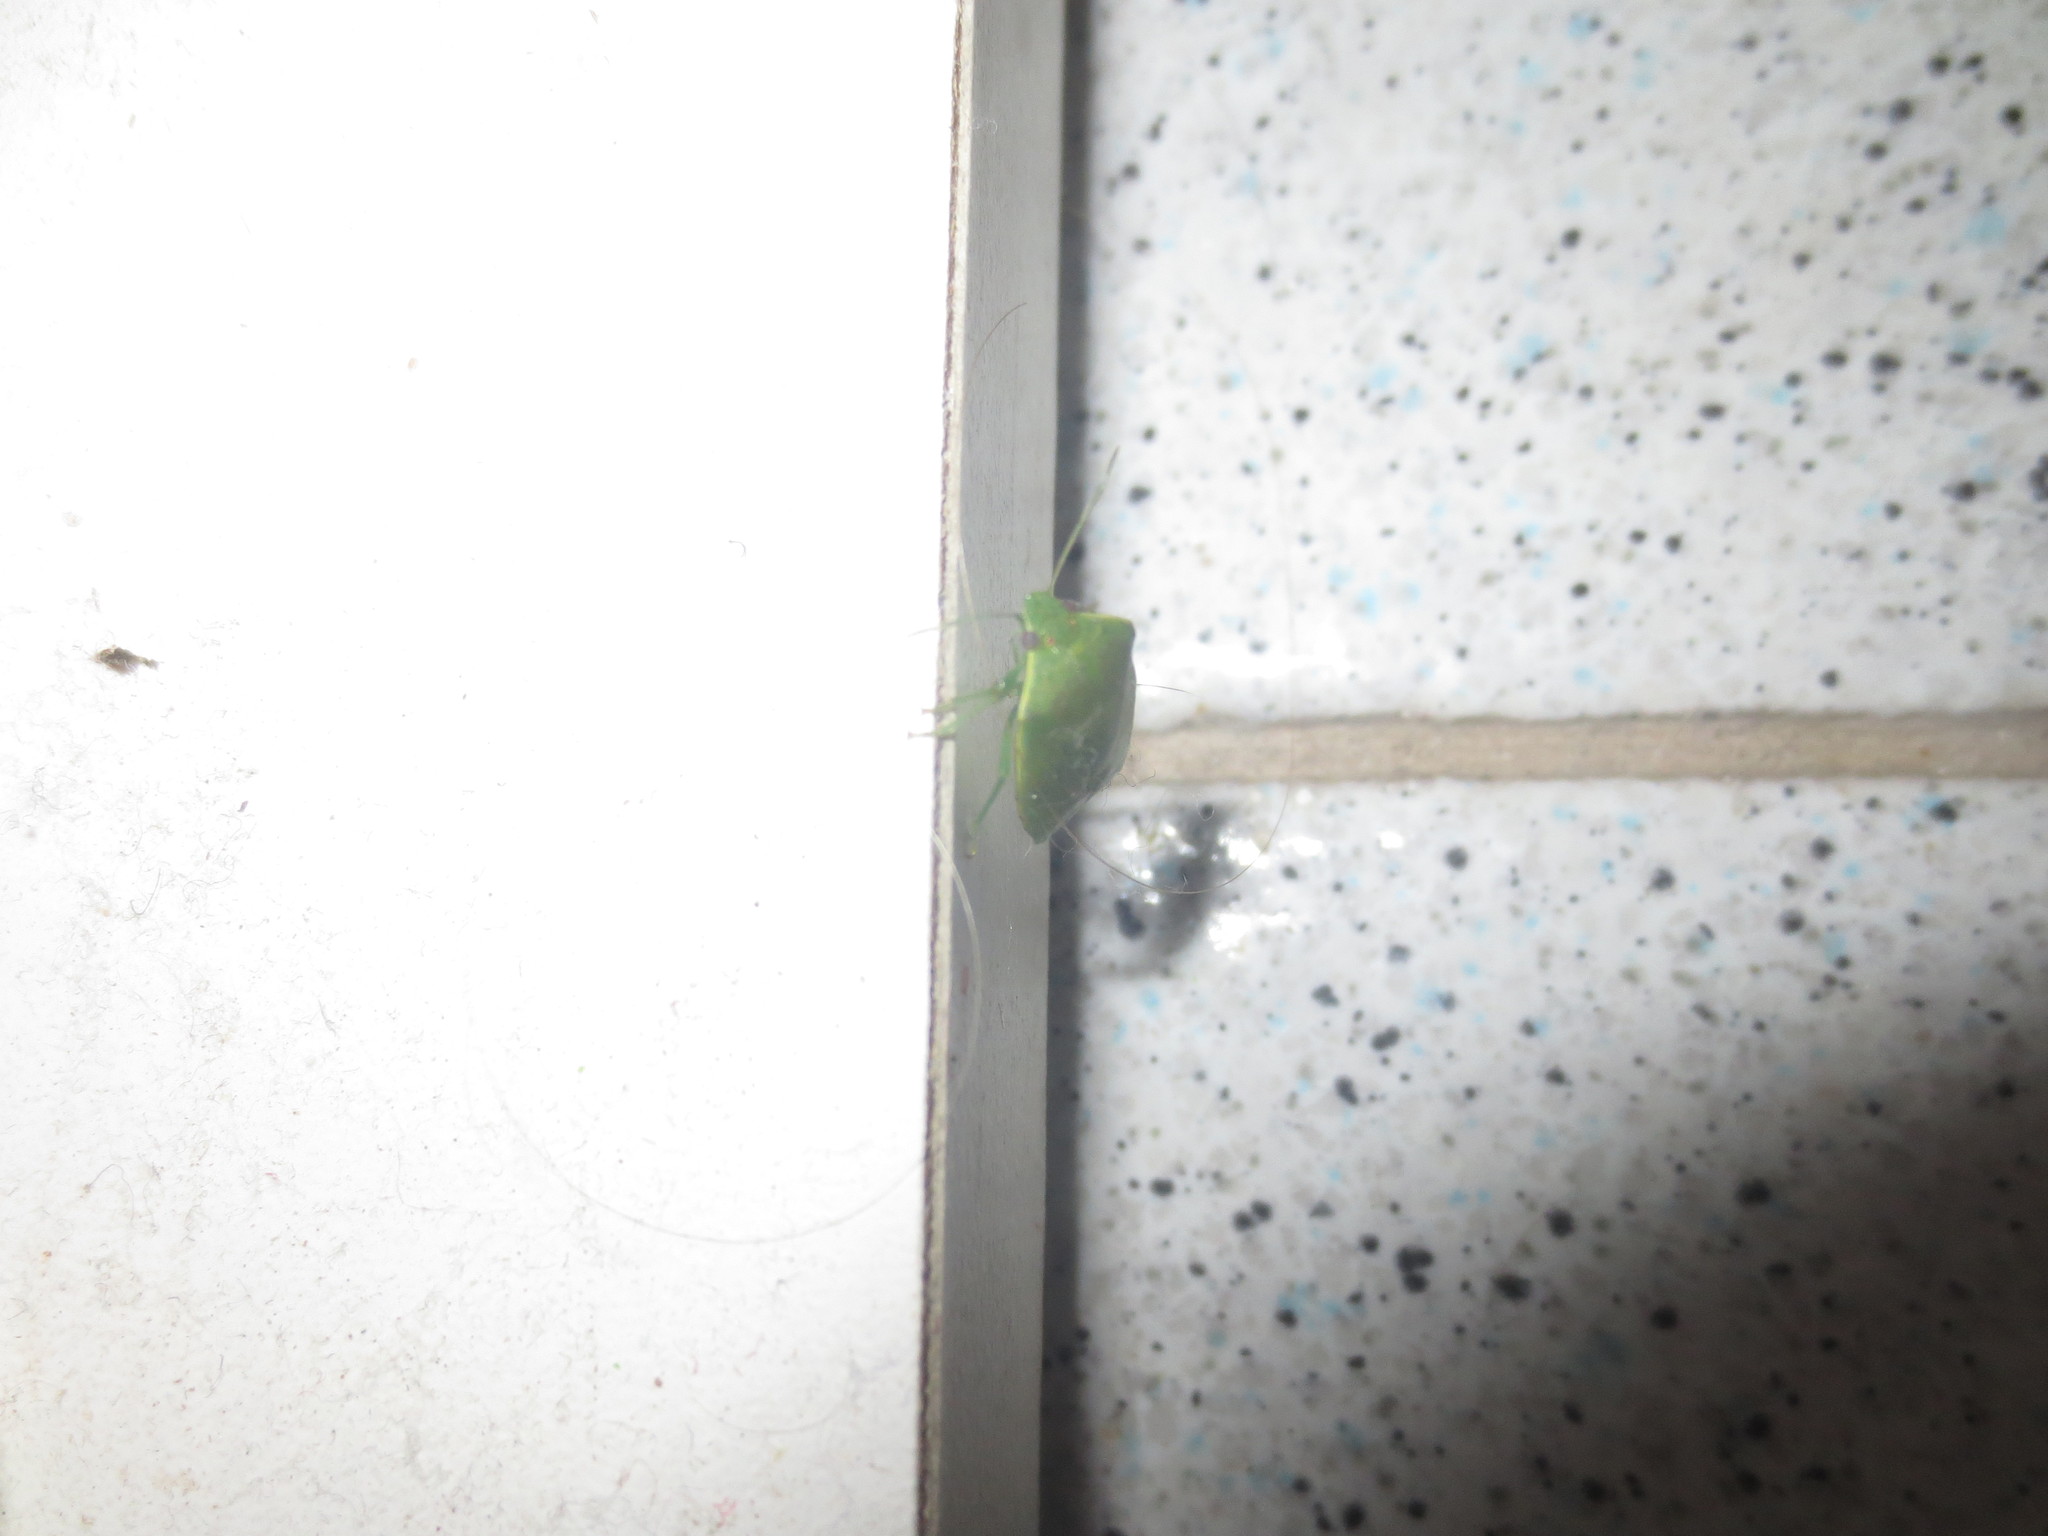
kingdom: Animalia
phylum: Arthropoda
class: Insecta
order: Hemiptera
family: Pentatomidae
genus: Acrosternum
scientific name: Acrosternum millierei
